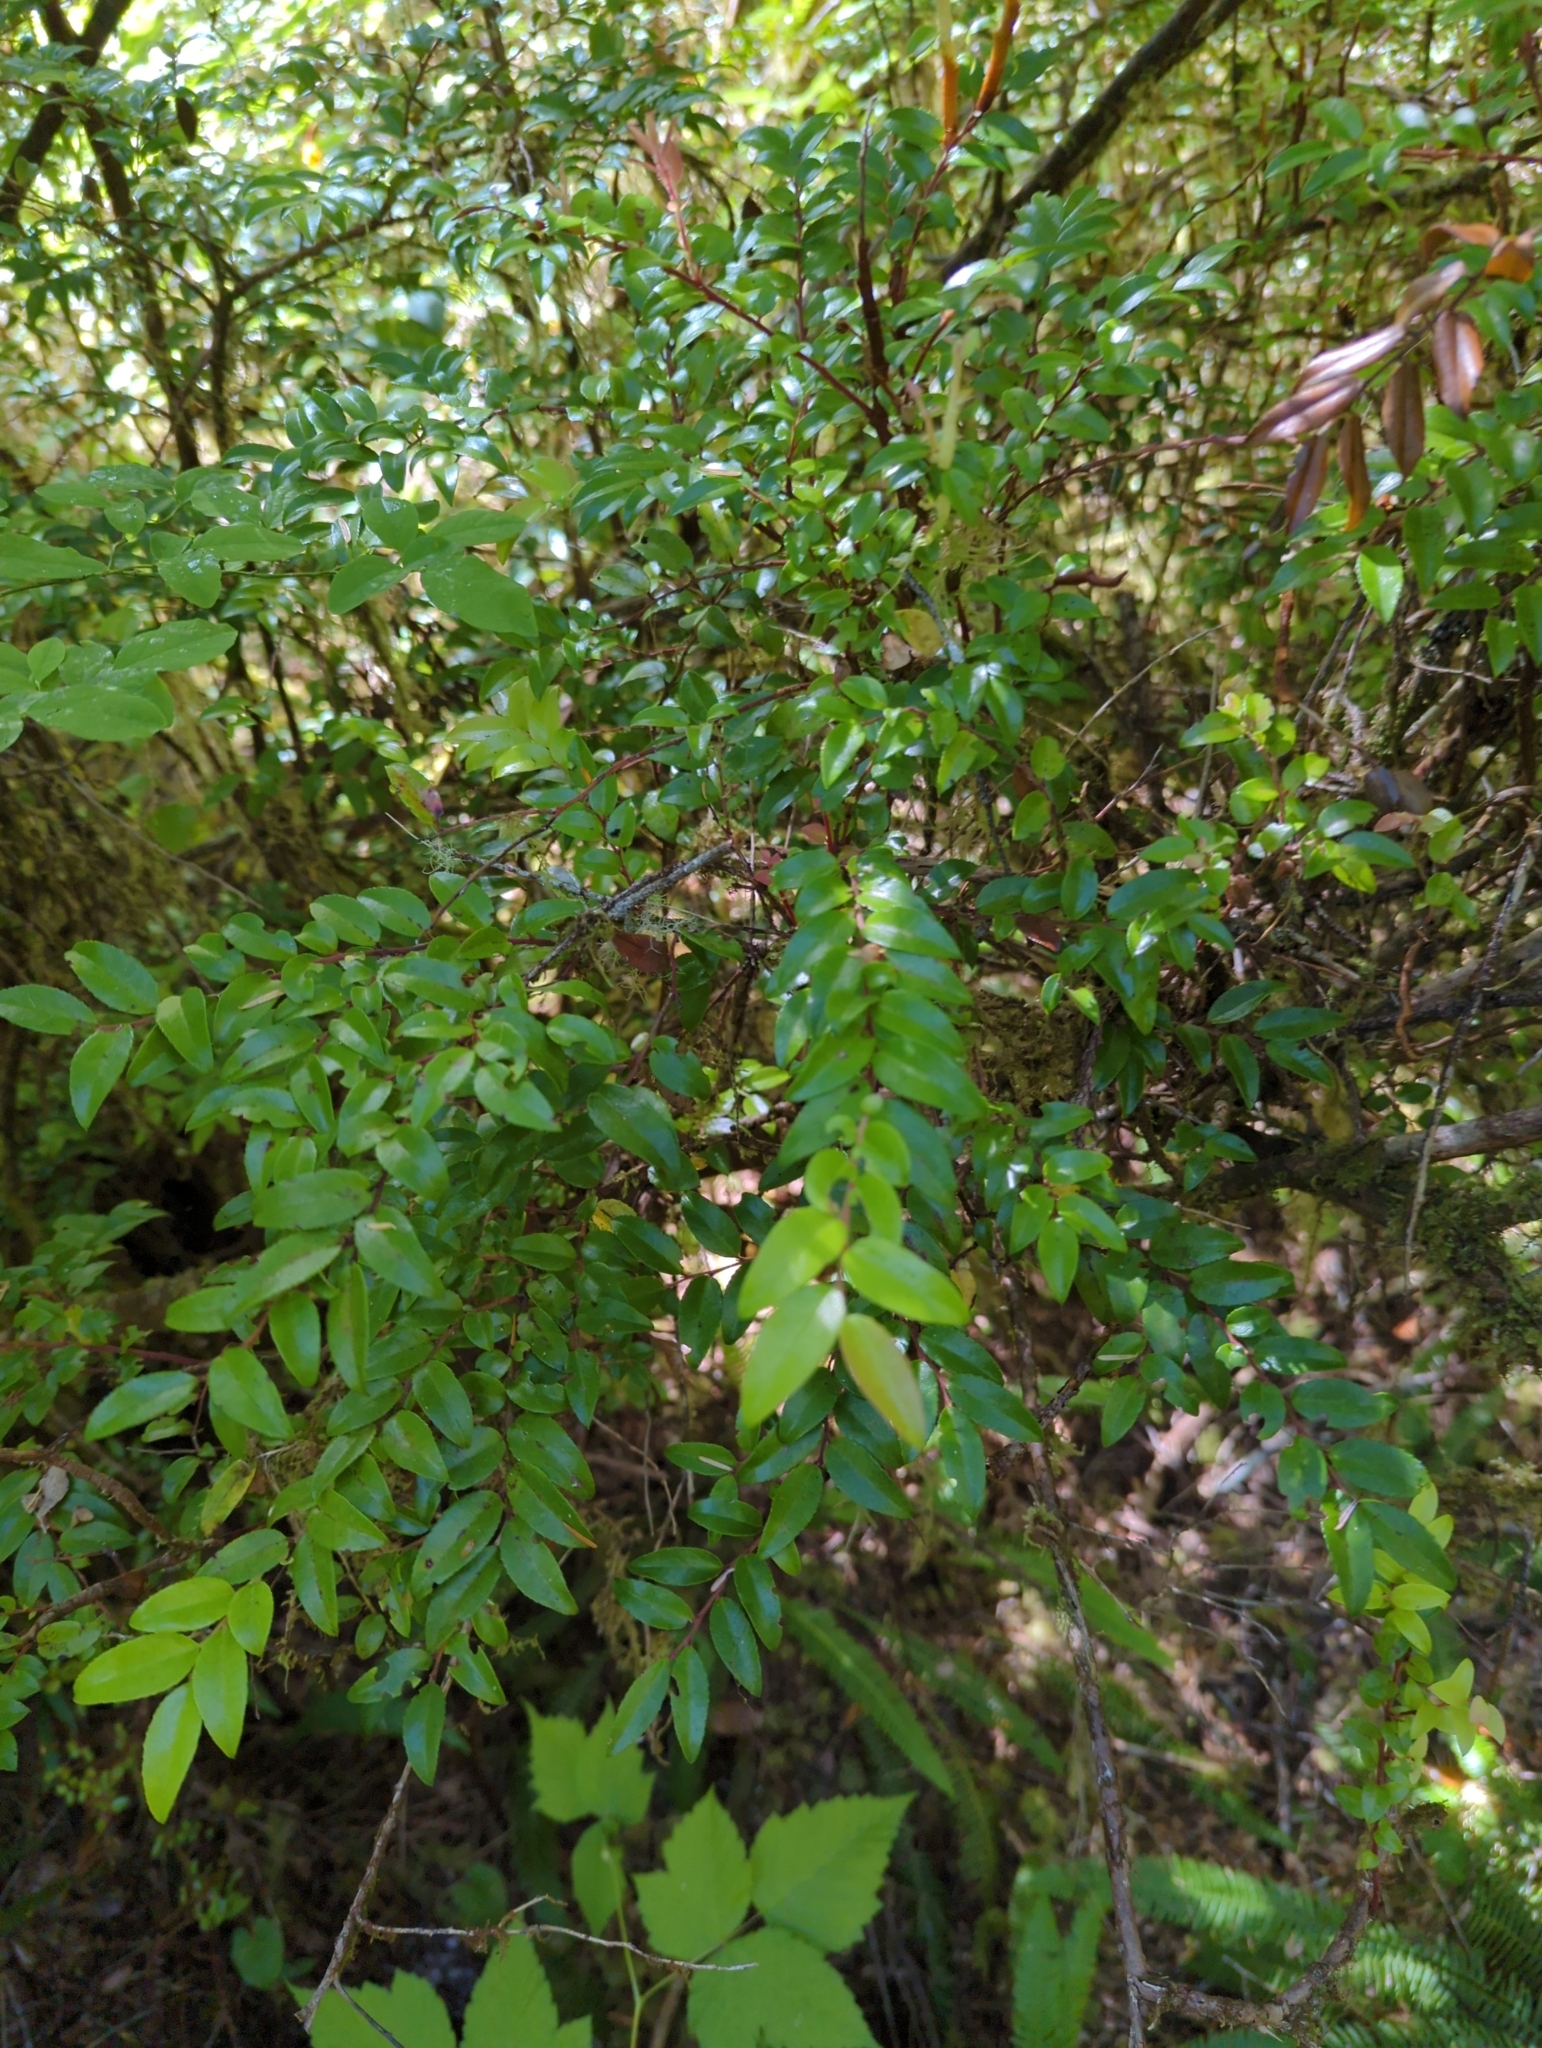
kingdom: Plantae
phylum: Tracheophyta
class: Magnoliopsida
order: Ericales
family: Ericaceae
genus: Vaccinium
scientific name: Vaccinium ovatum
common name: California-huckleberry
